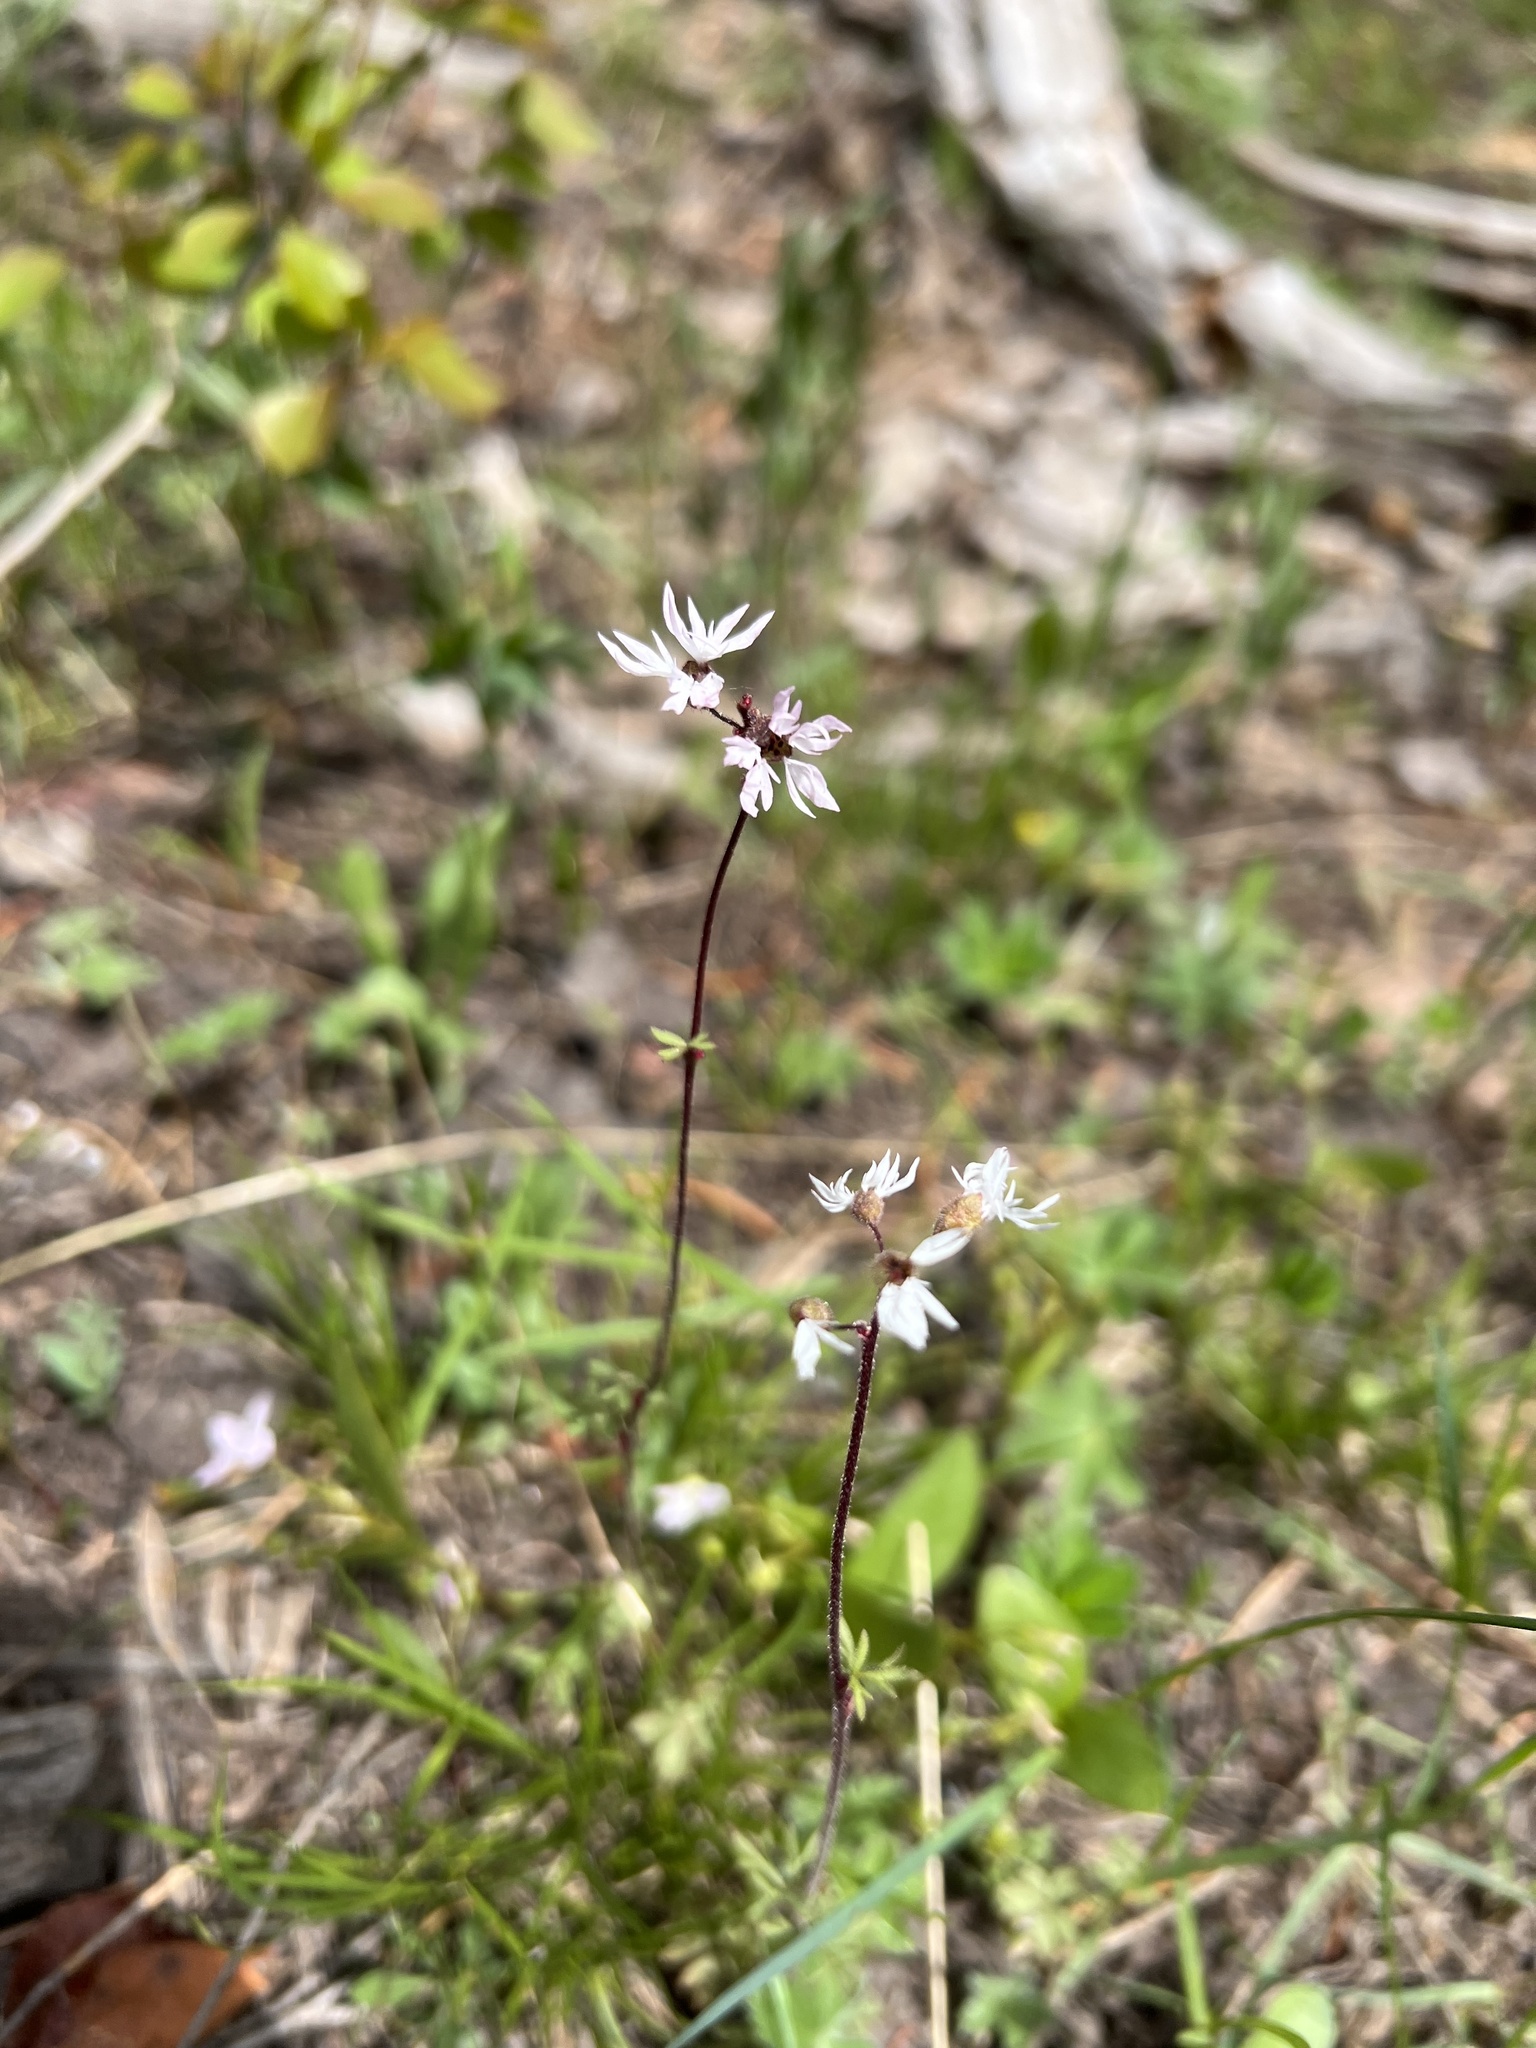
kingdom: Plantae
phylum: Tracheophyta
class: Magnoliopsida
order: Saxifragales
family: Saxifragaceae
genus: Lithophragma
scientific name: Lithophragma glabrum
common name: Bulbous prairie-star
